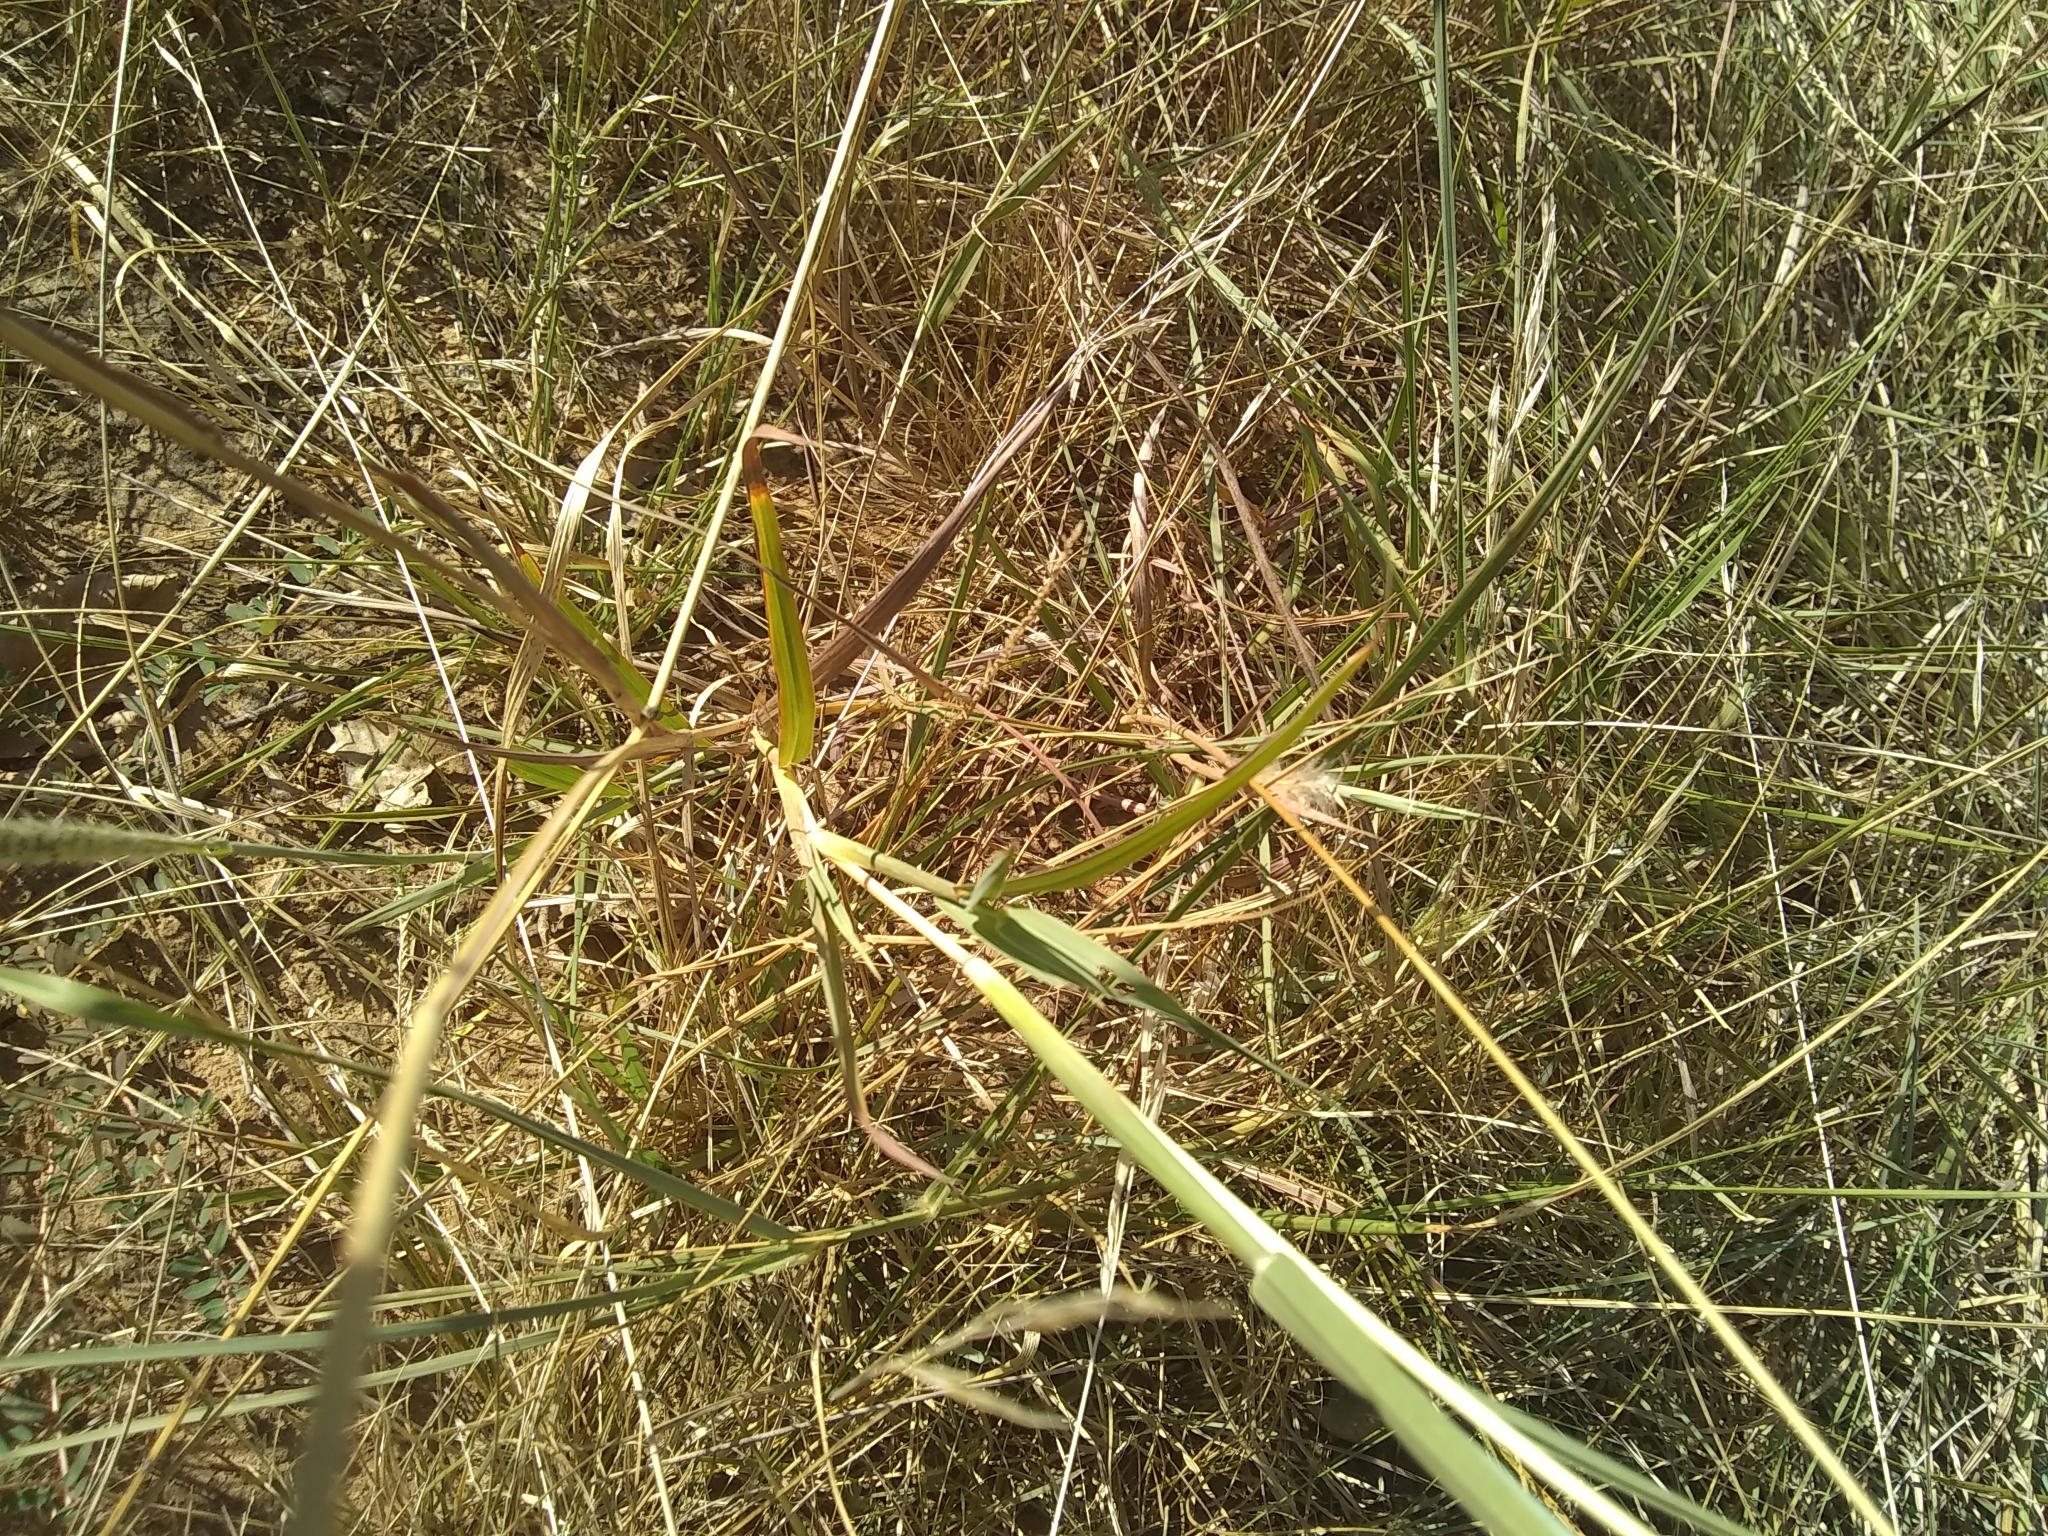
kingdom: Plantae
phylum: Tracheophyta
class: Liliopsida
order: Poales
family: Poaceae
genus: Bothriochloa
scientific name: Bothriochloa torreyana
